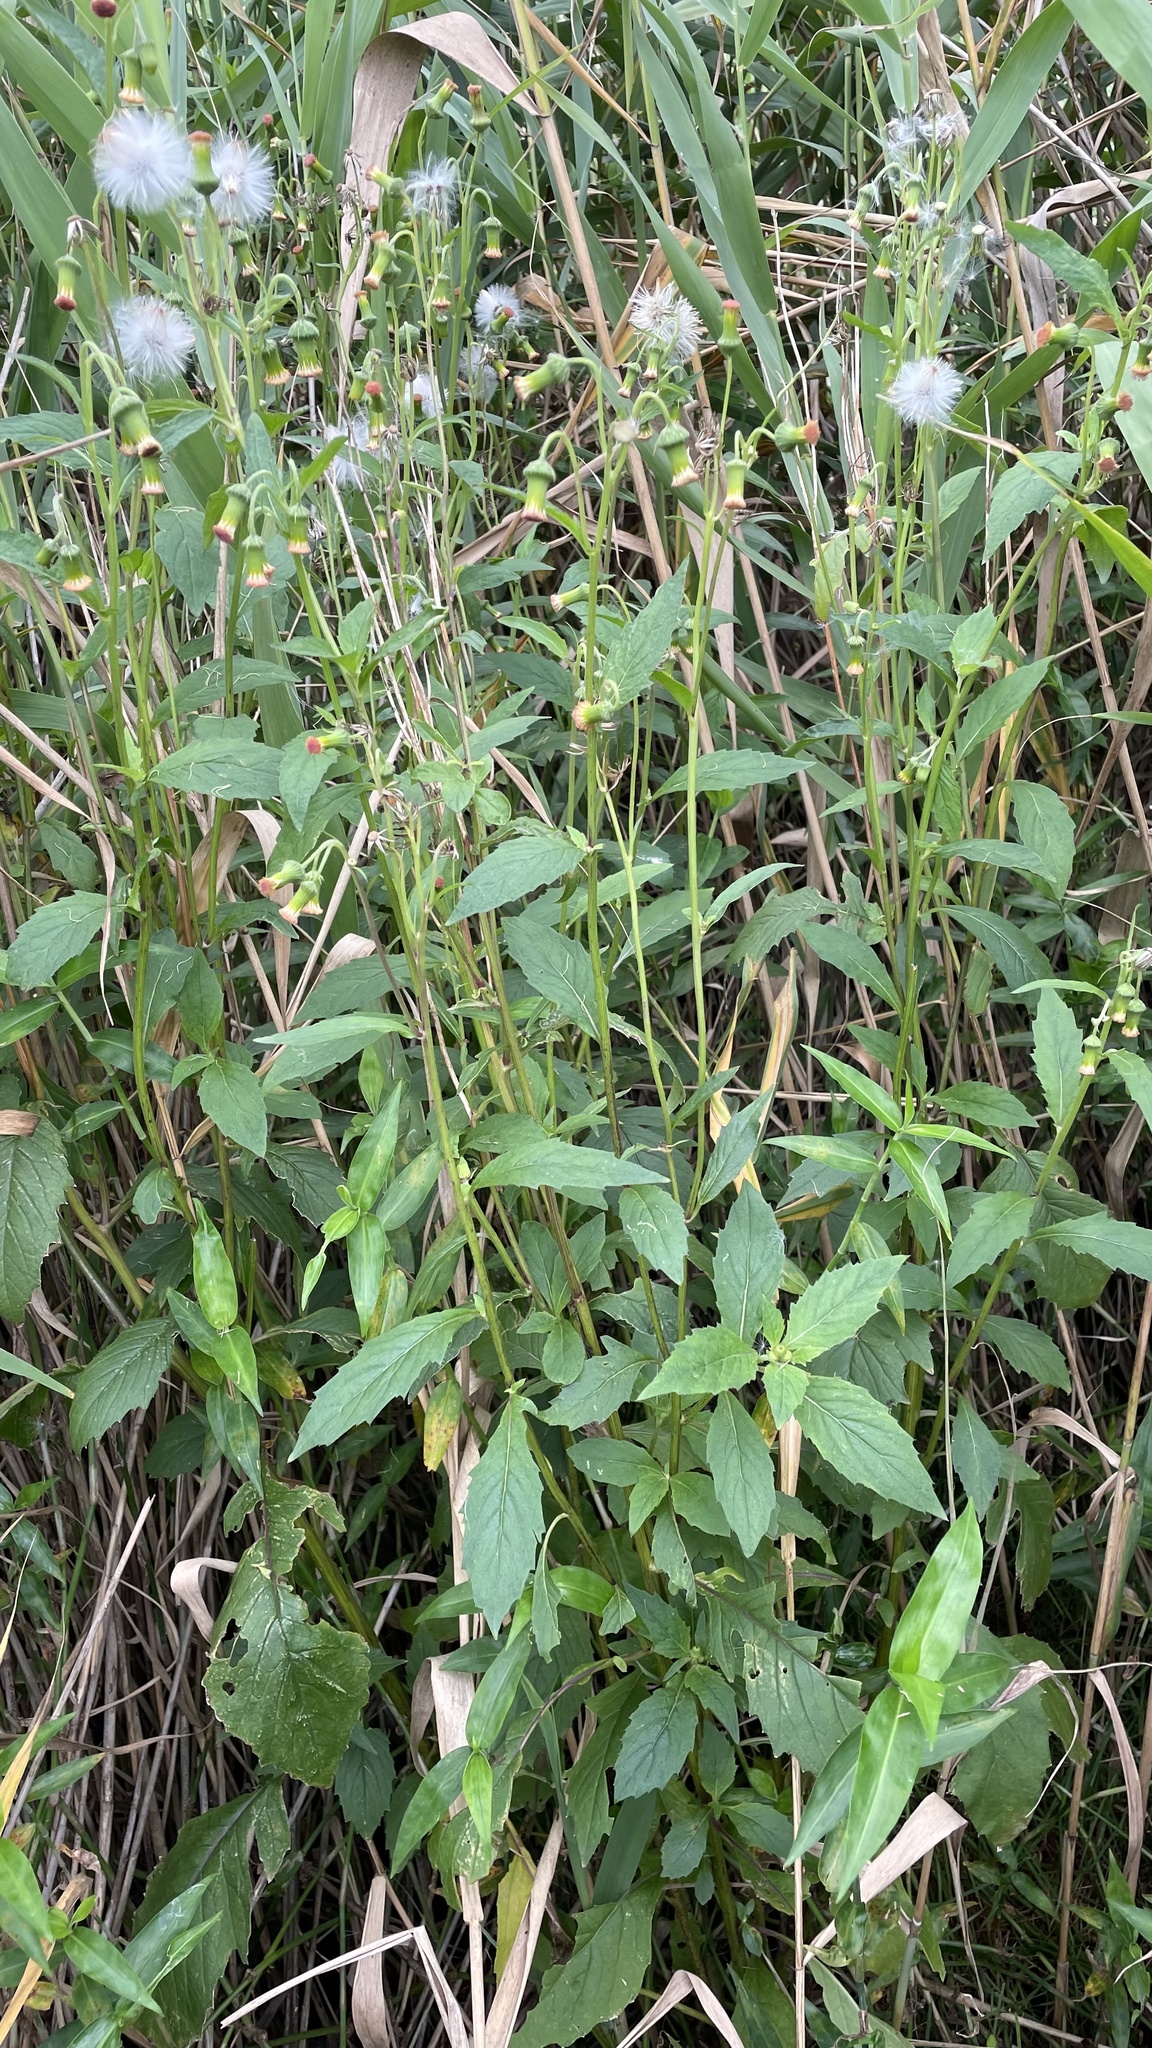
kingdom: Plantae
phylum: Tracheophyta
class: Magnoliopsida
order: Asterales
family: Asteraceae
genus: Crassocephalum
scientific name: Crassocephalum crepidioides
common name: Redflower ragleaf
